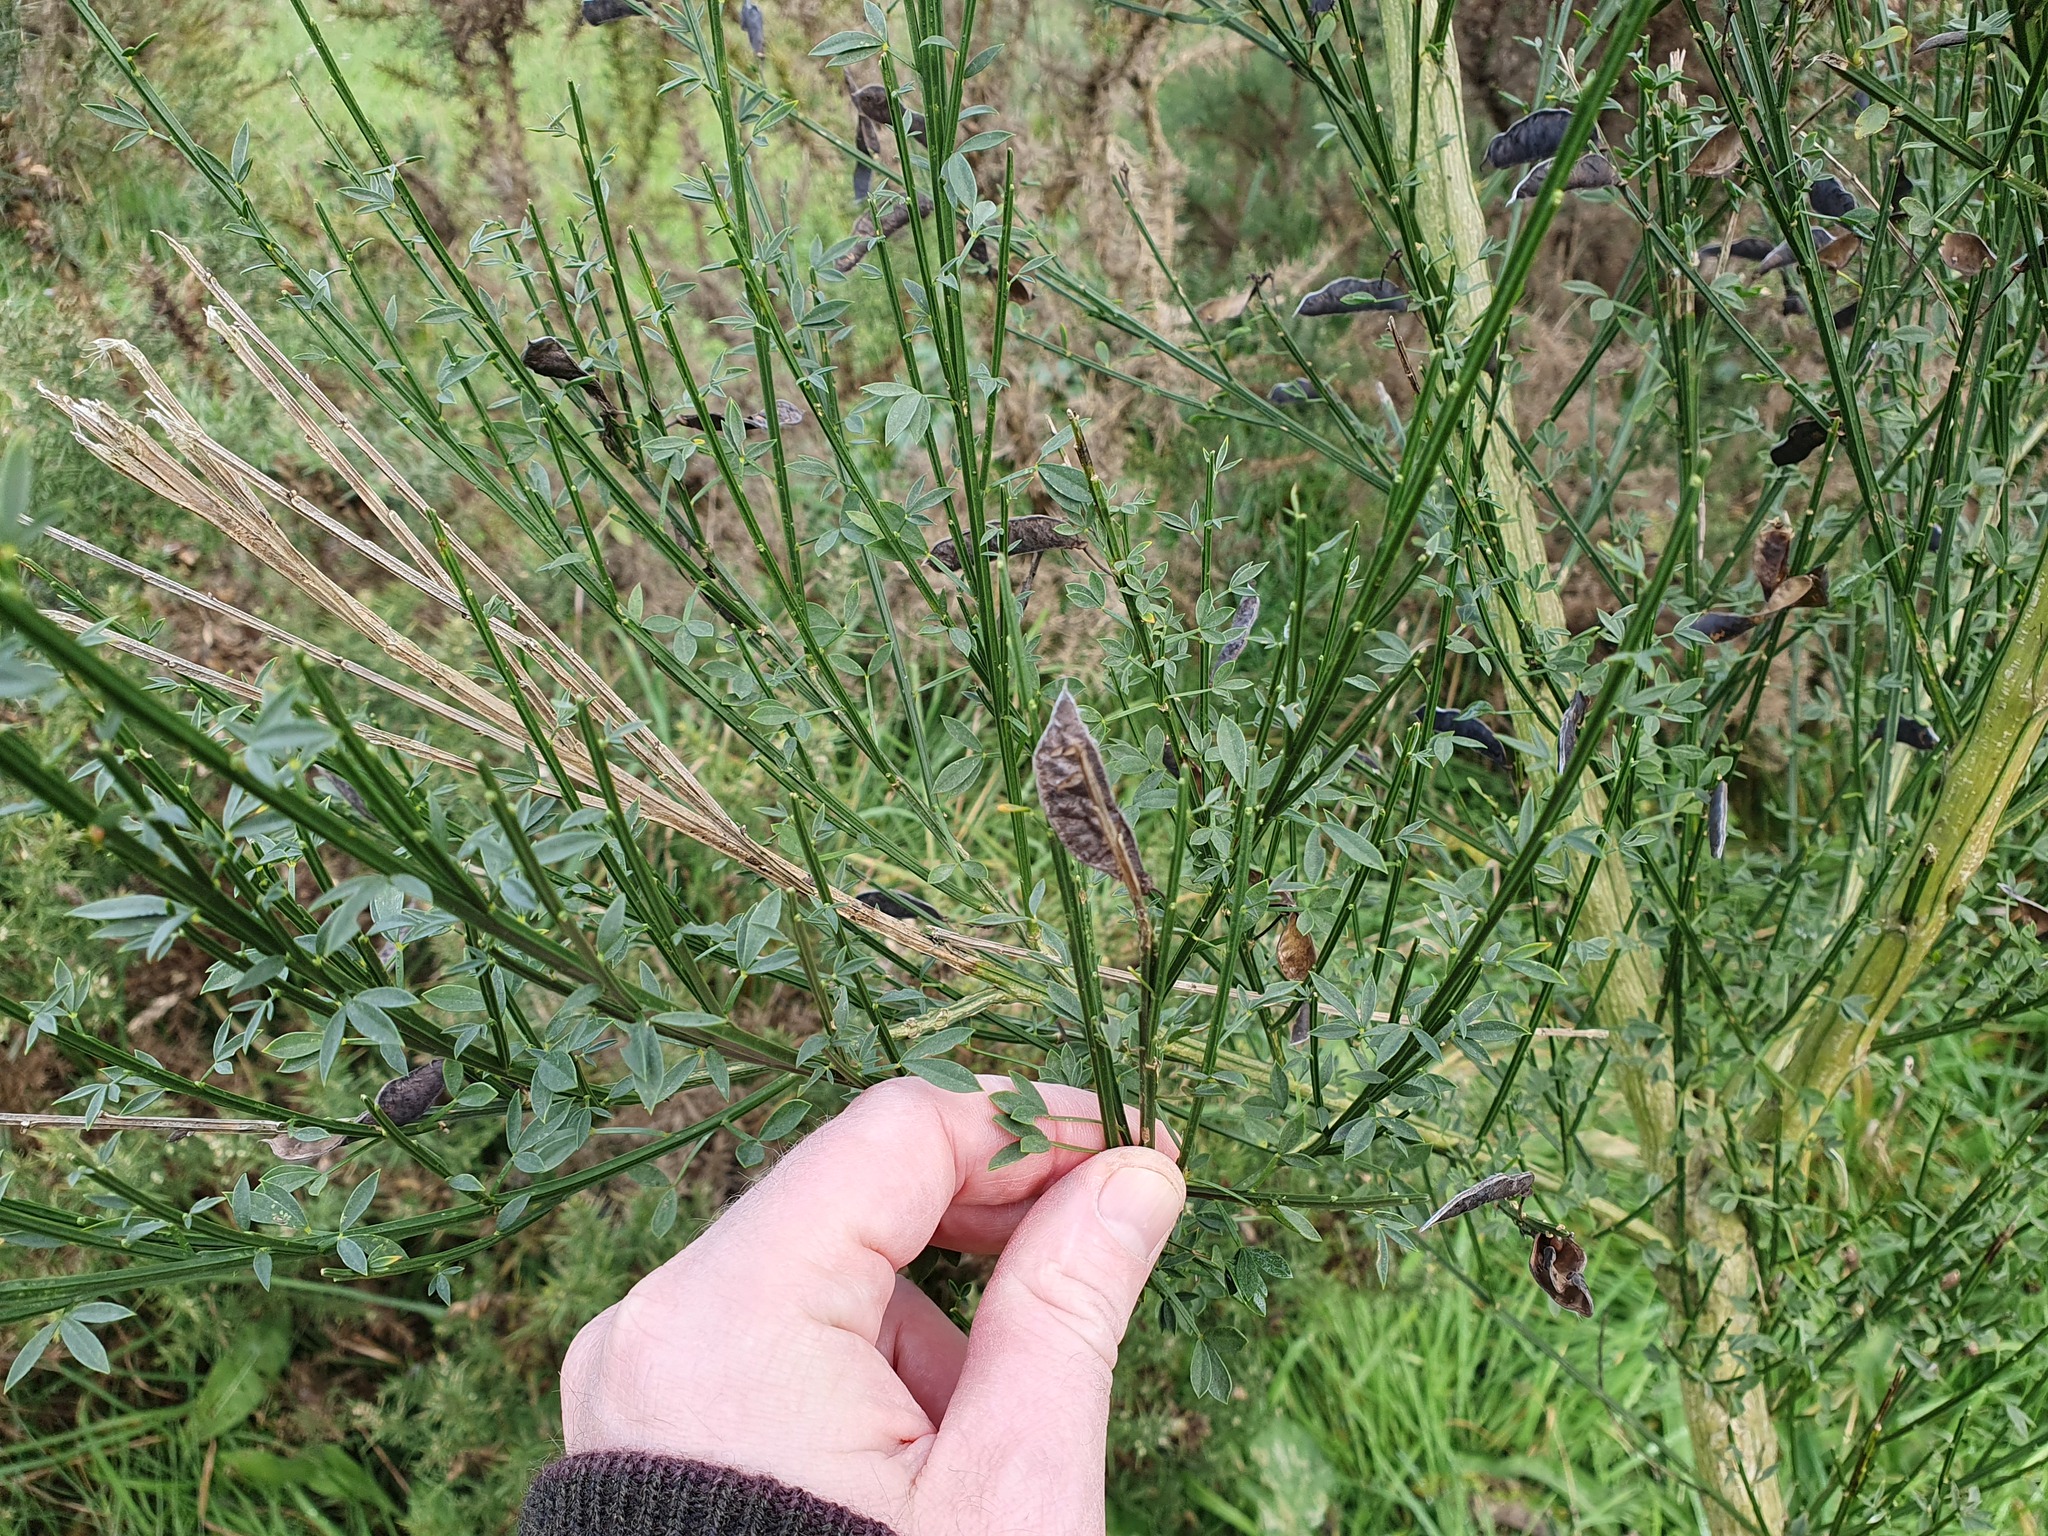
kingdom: Plantae
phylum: Tracheophyta
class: Magnoliopsida
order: Fabales
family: Fabaceae
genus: Cytisus
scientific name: Cytisus scoparius
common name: Scotch broom
